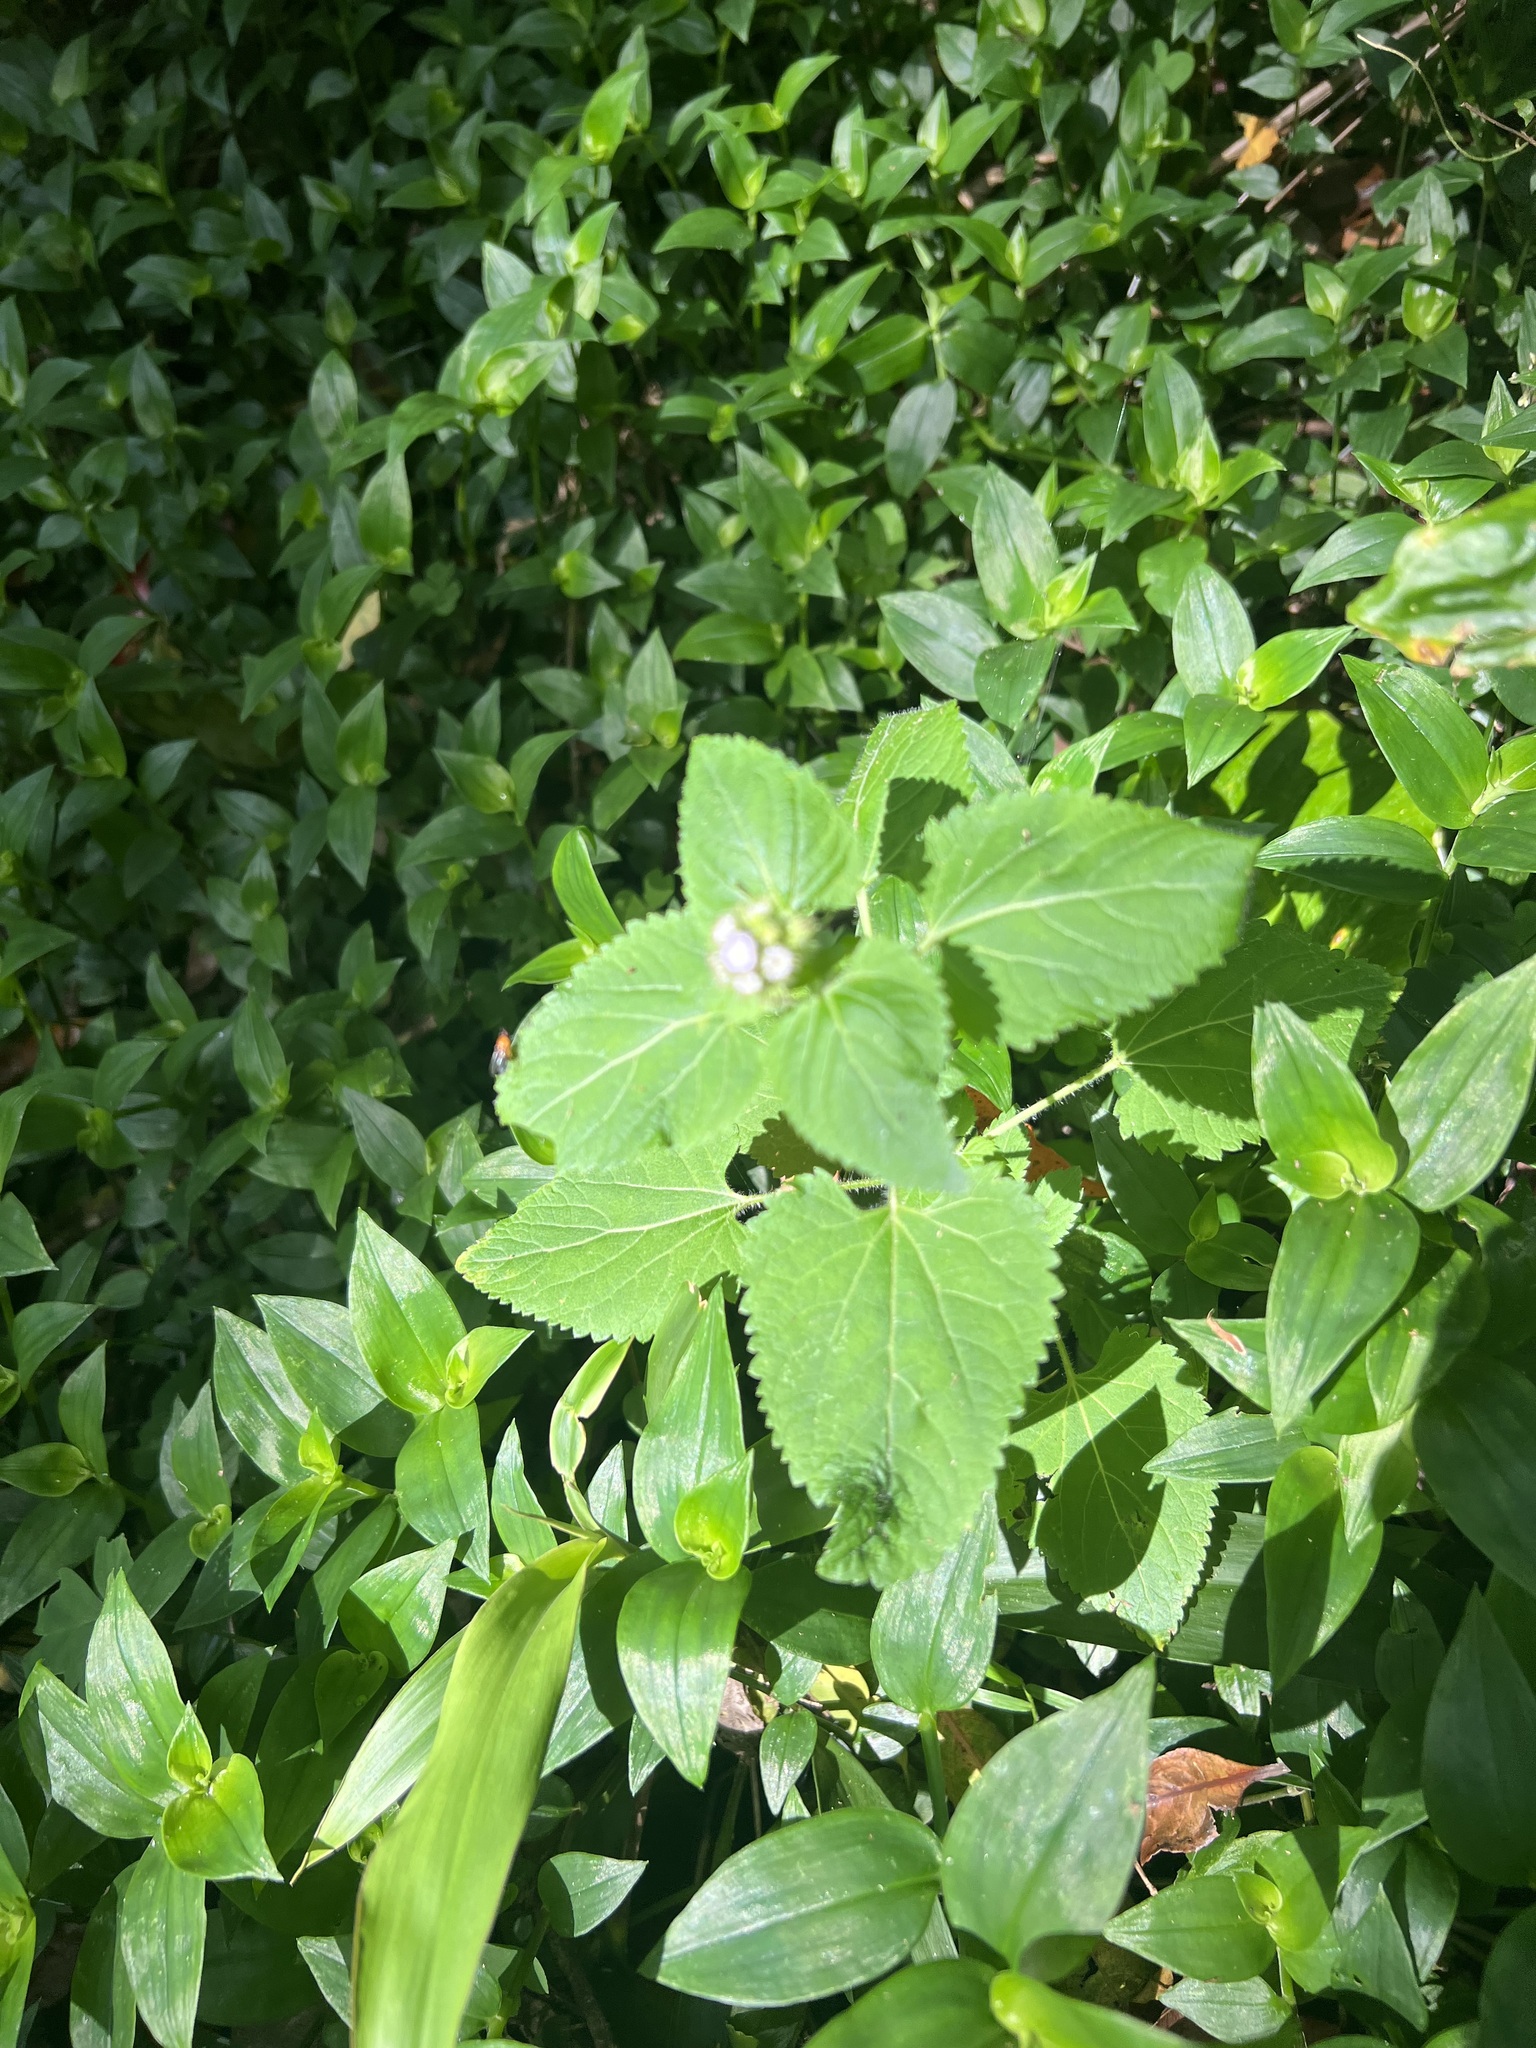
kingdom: Plantae
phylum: Tracheophyta
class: Liliopsida
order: Commelinales
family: Commelinaceae
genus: Tradescantia
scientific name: Tradescantia fluminensis
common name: Wandering-jew
